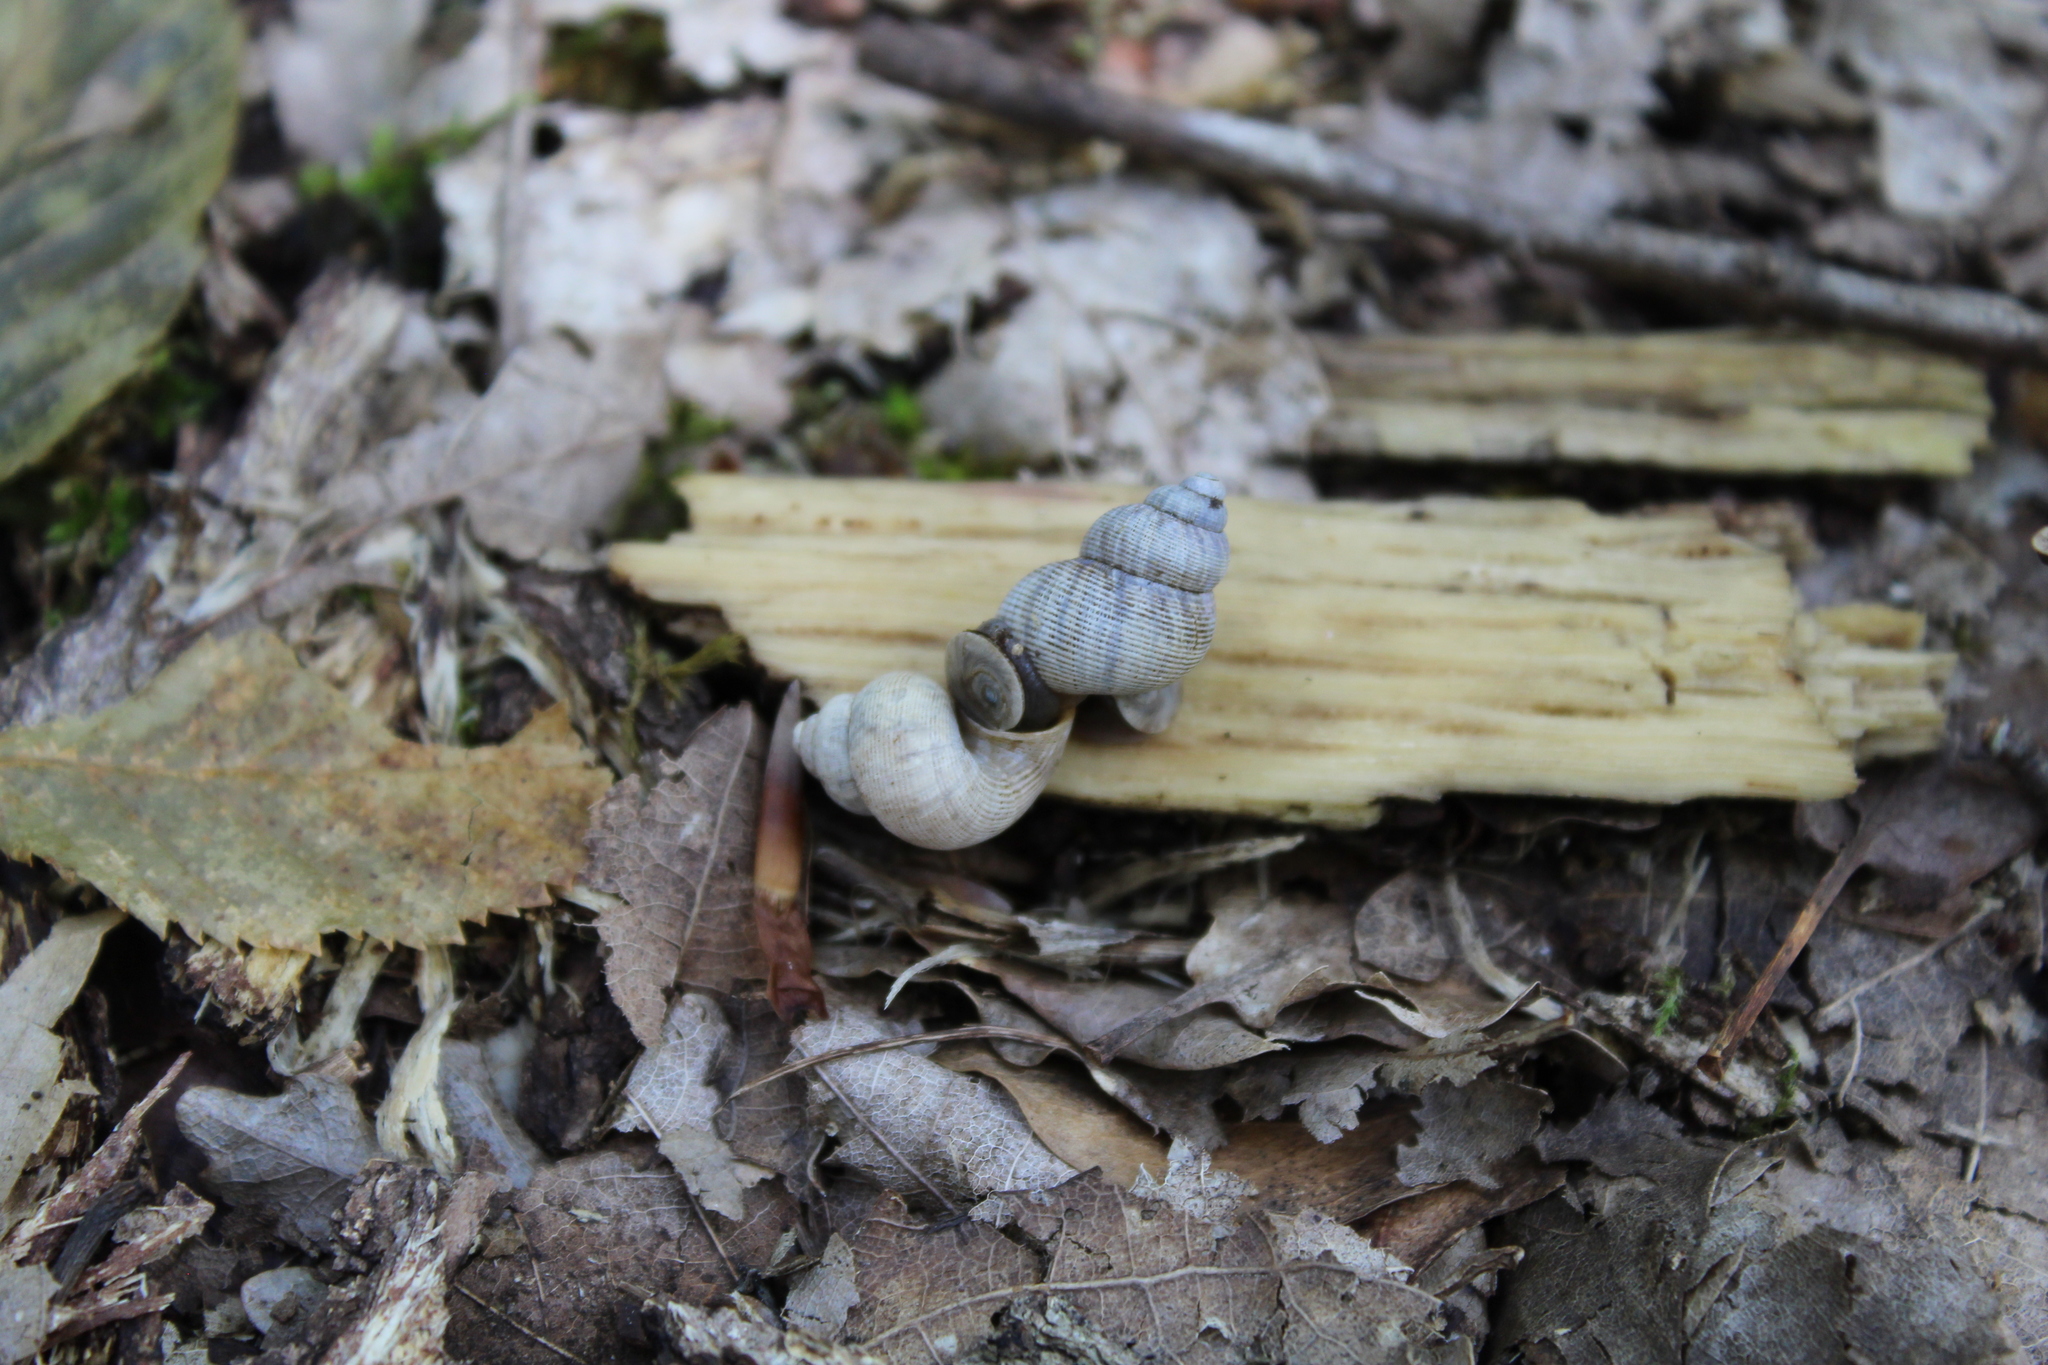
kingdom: Animalia
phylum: Mollusca
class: Gastropoda
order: Littorinimorpha
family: Pomatiidae
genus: Pomatias
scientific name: Pomatias elegans
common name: Red-mouthed snail
